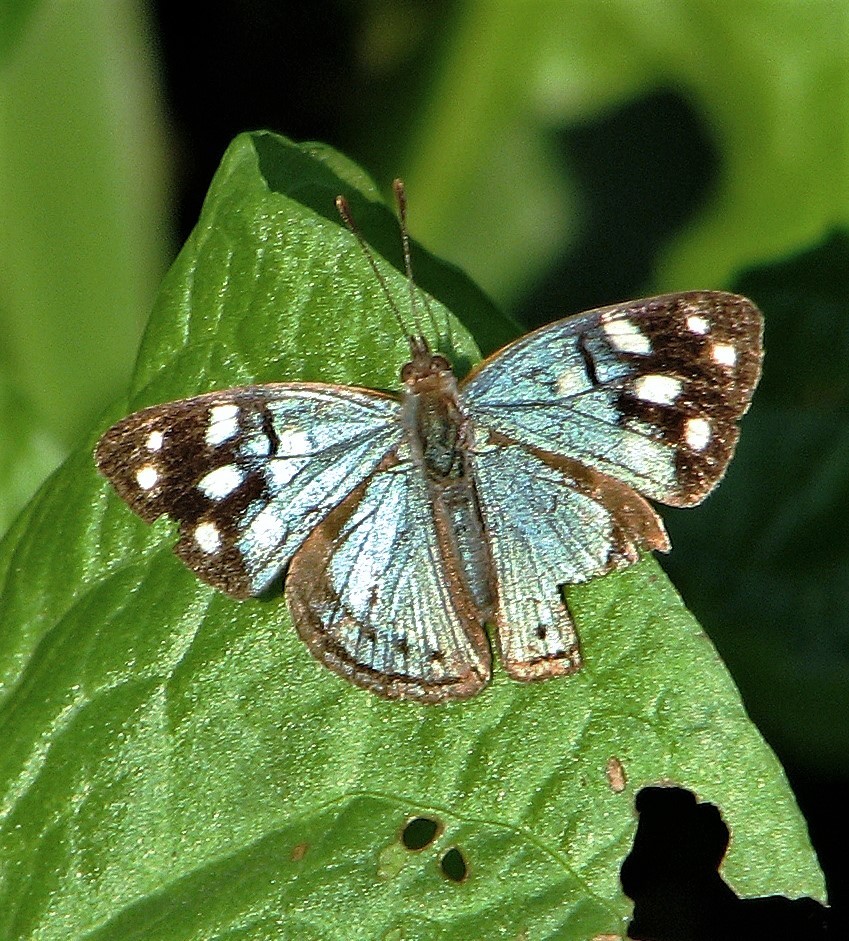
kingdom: Animalia
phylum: Arthropoda
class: Insecta
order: Lepidoptera
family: Nymphalidae
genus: Dynamine
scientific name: Dynamine tithia
